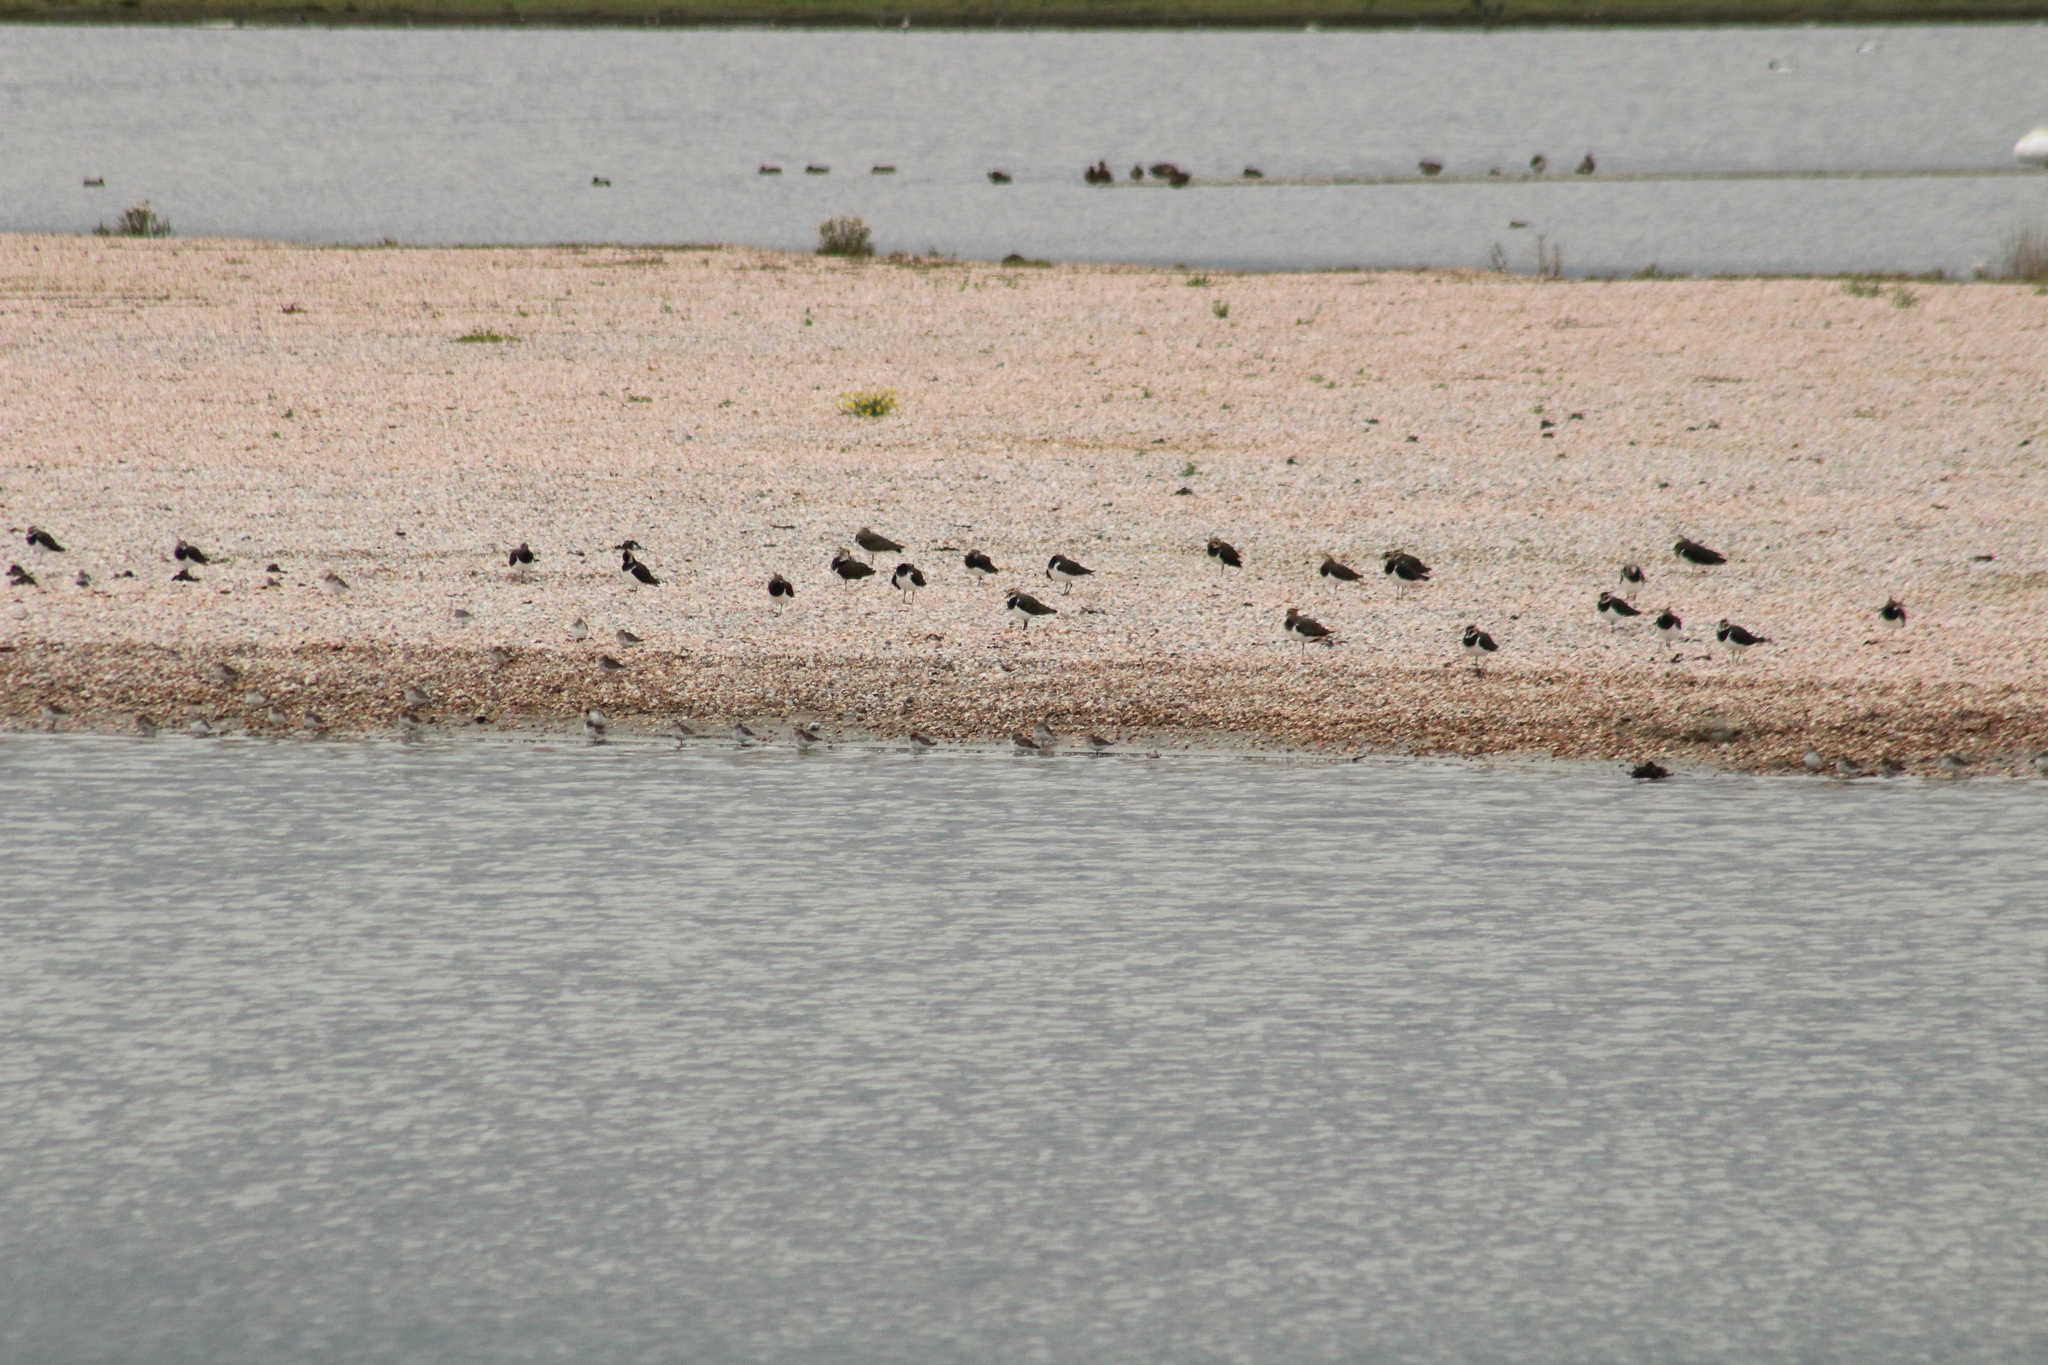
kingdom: Animalia
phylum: Chordata
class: Aves
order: Charadriiformes
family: Charadriidae
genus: Vanellus
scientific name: Vanellus vanellus
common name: Northern lapwing
